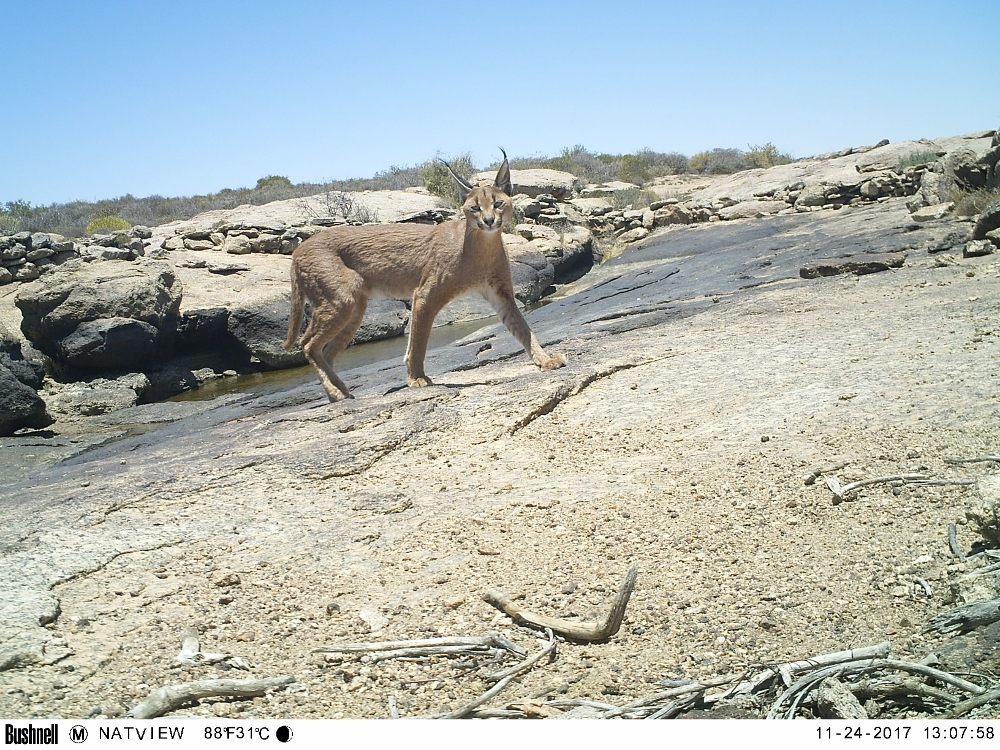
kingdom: Animalia
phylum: Chordata
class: Mammalia
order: Carnivora
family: Felidae
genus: Caracal
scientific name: Caracal caracal
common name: Caracal
